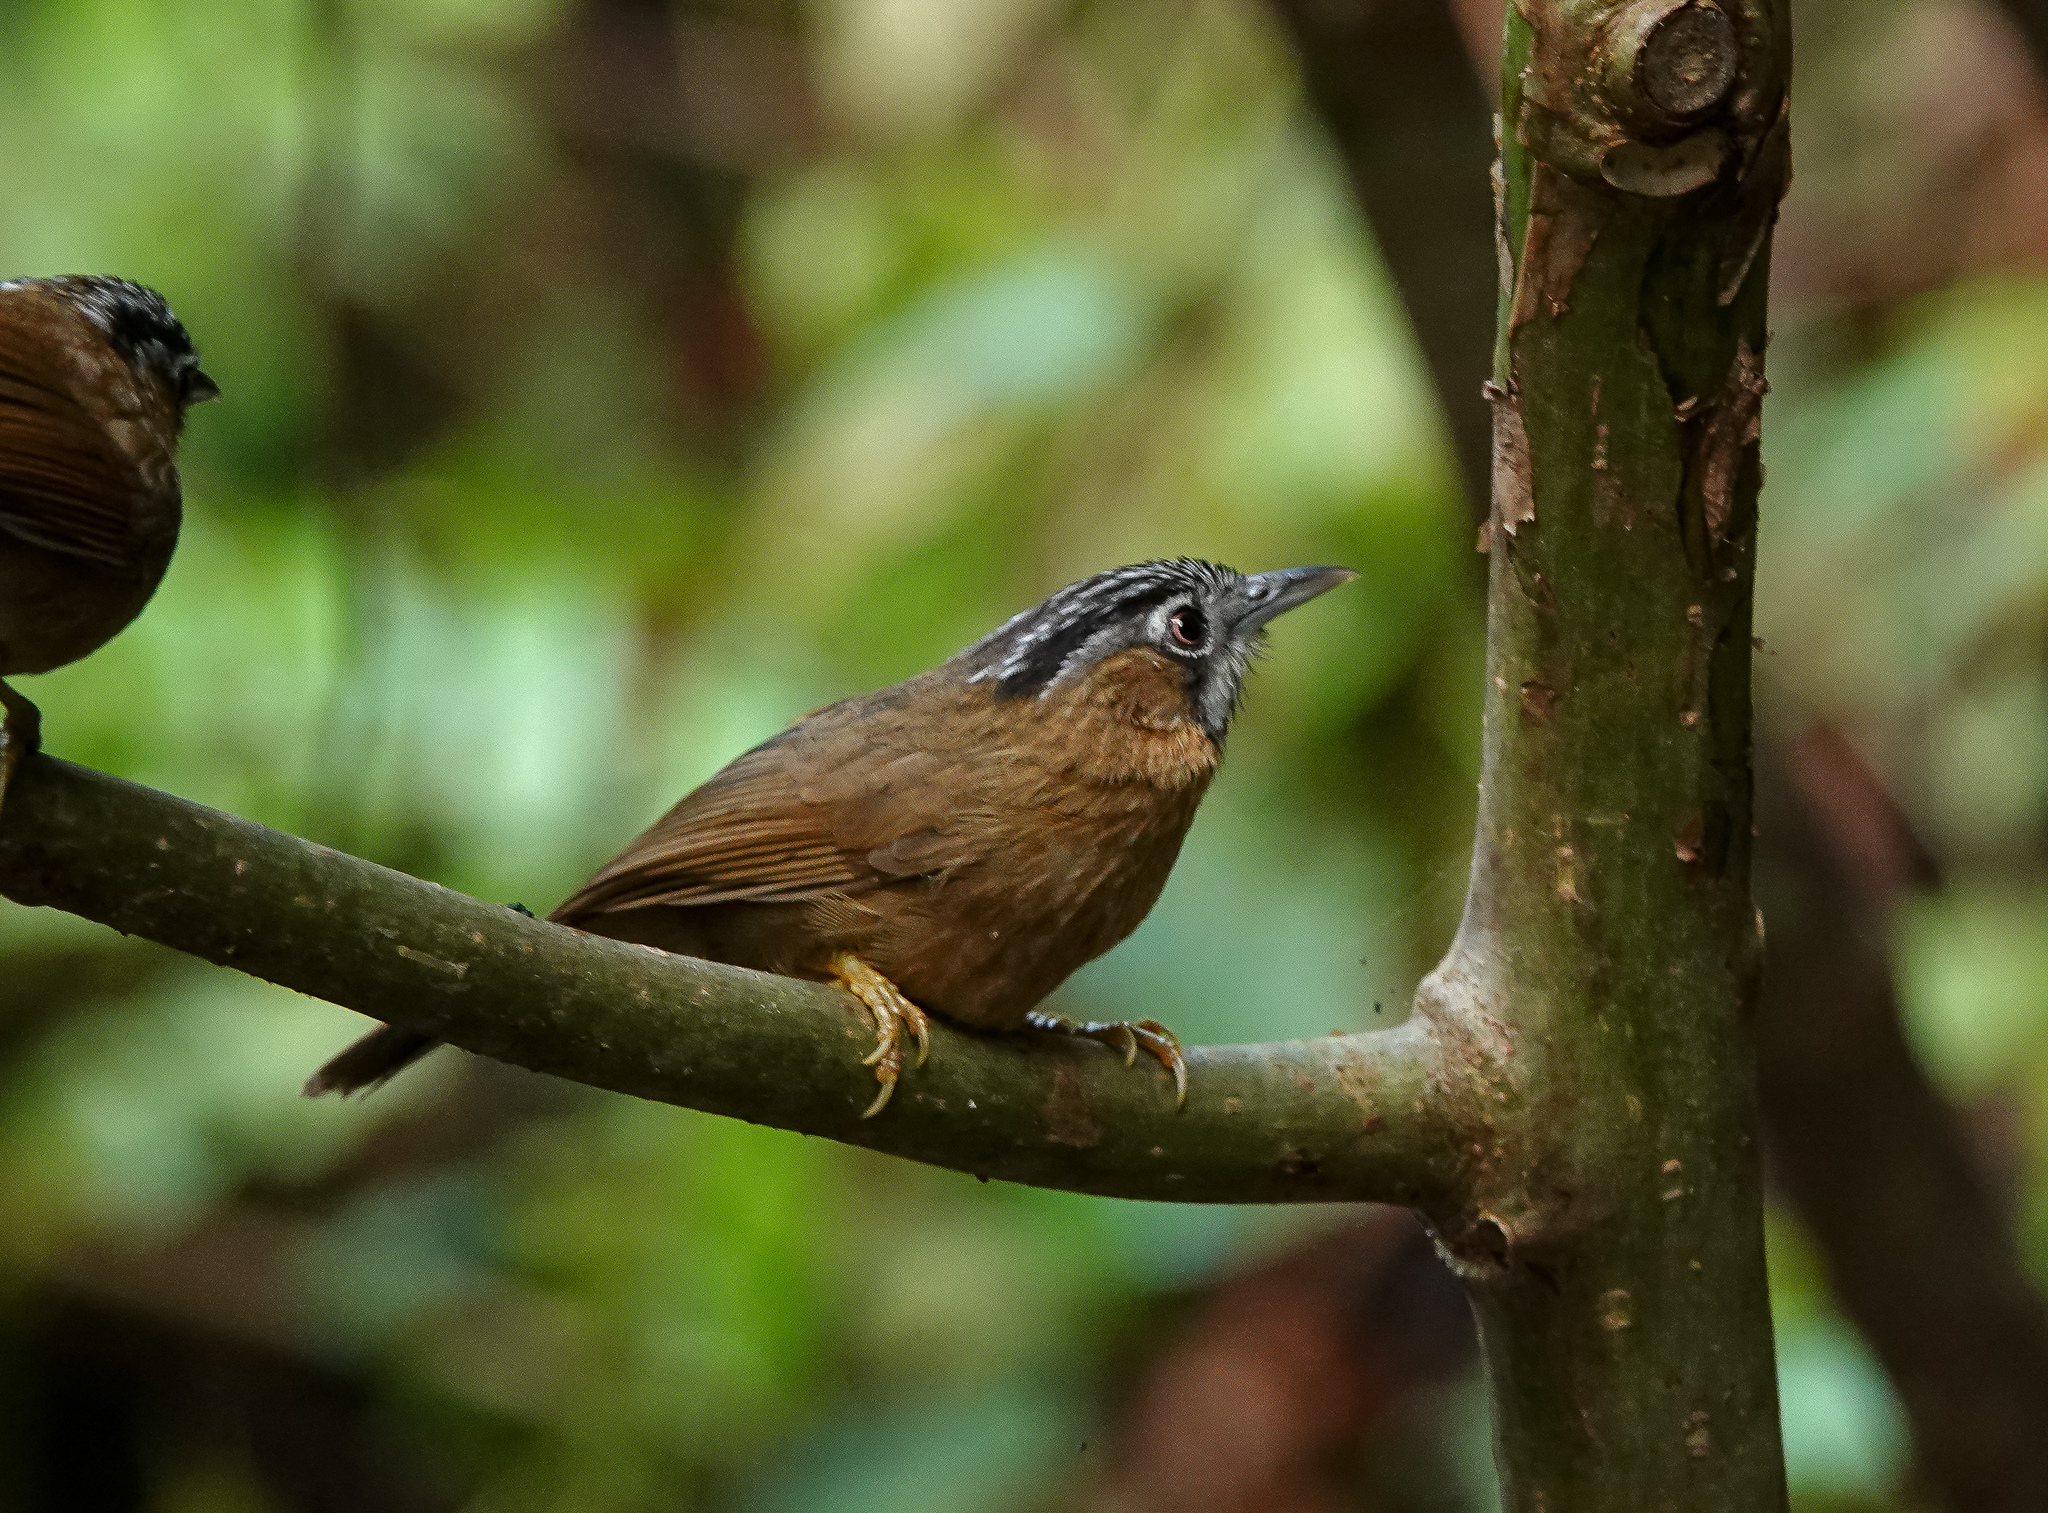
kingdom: Animalia
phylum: Chordata
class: Aves
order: Passeriformes
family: Timaliidae
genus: Stachyris
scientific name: Stachyris nigriceps
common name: Grey-throated babbler
